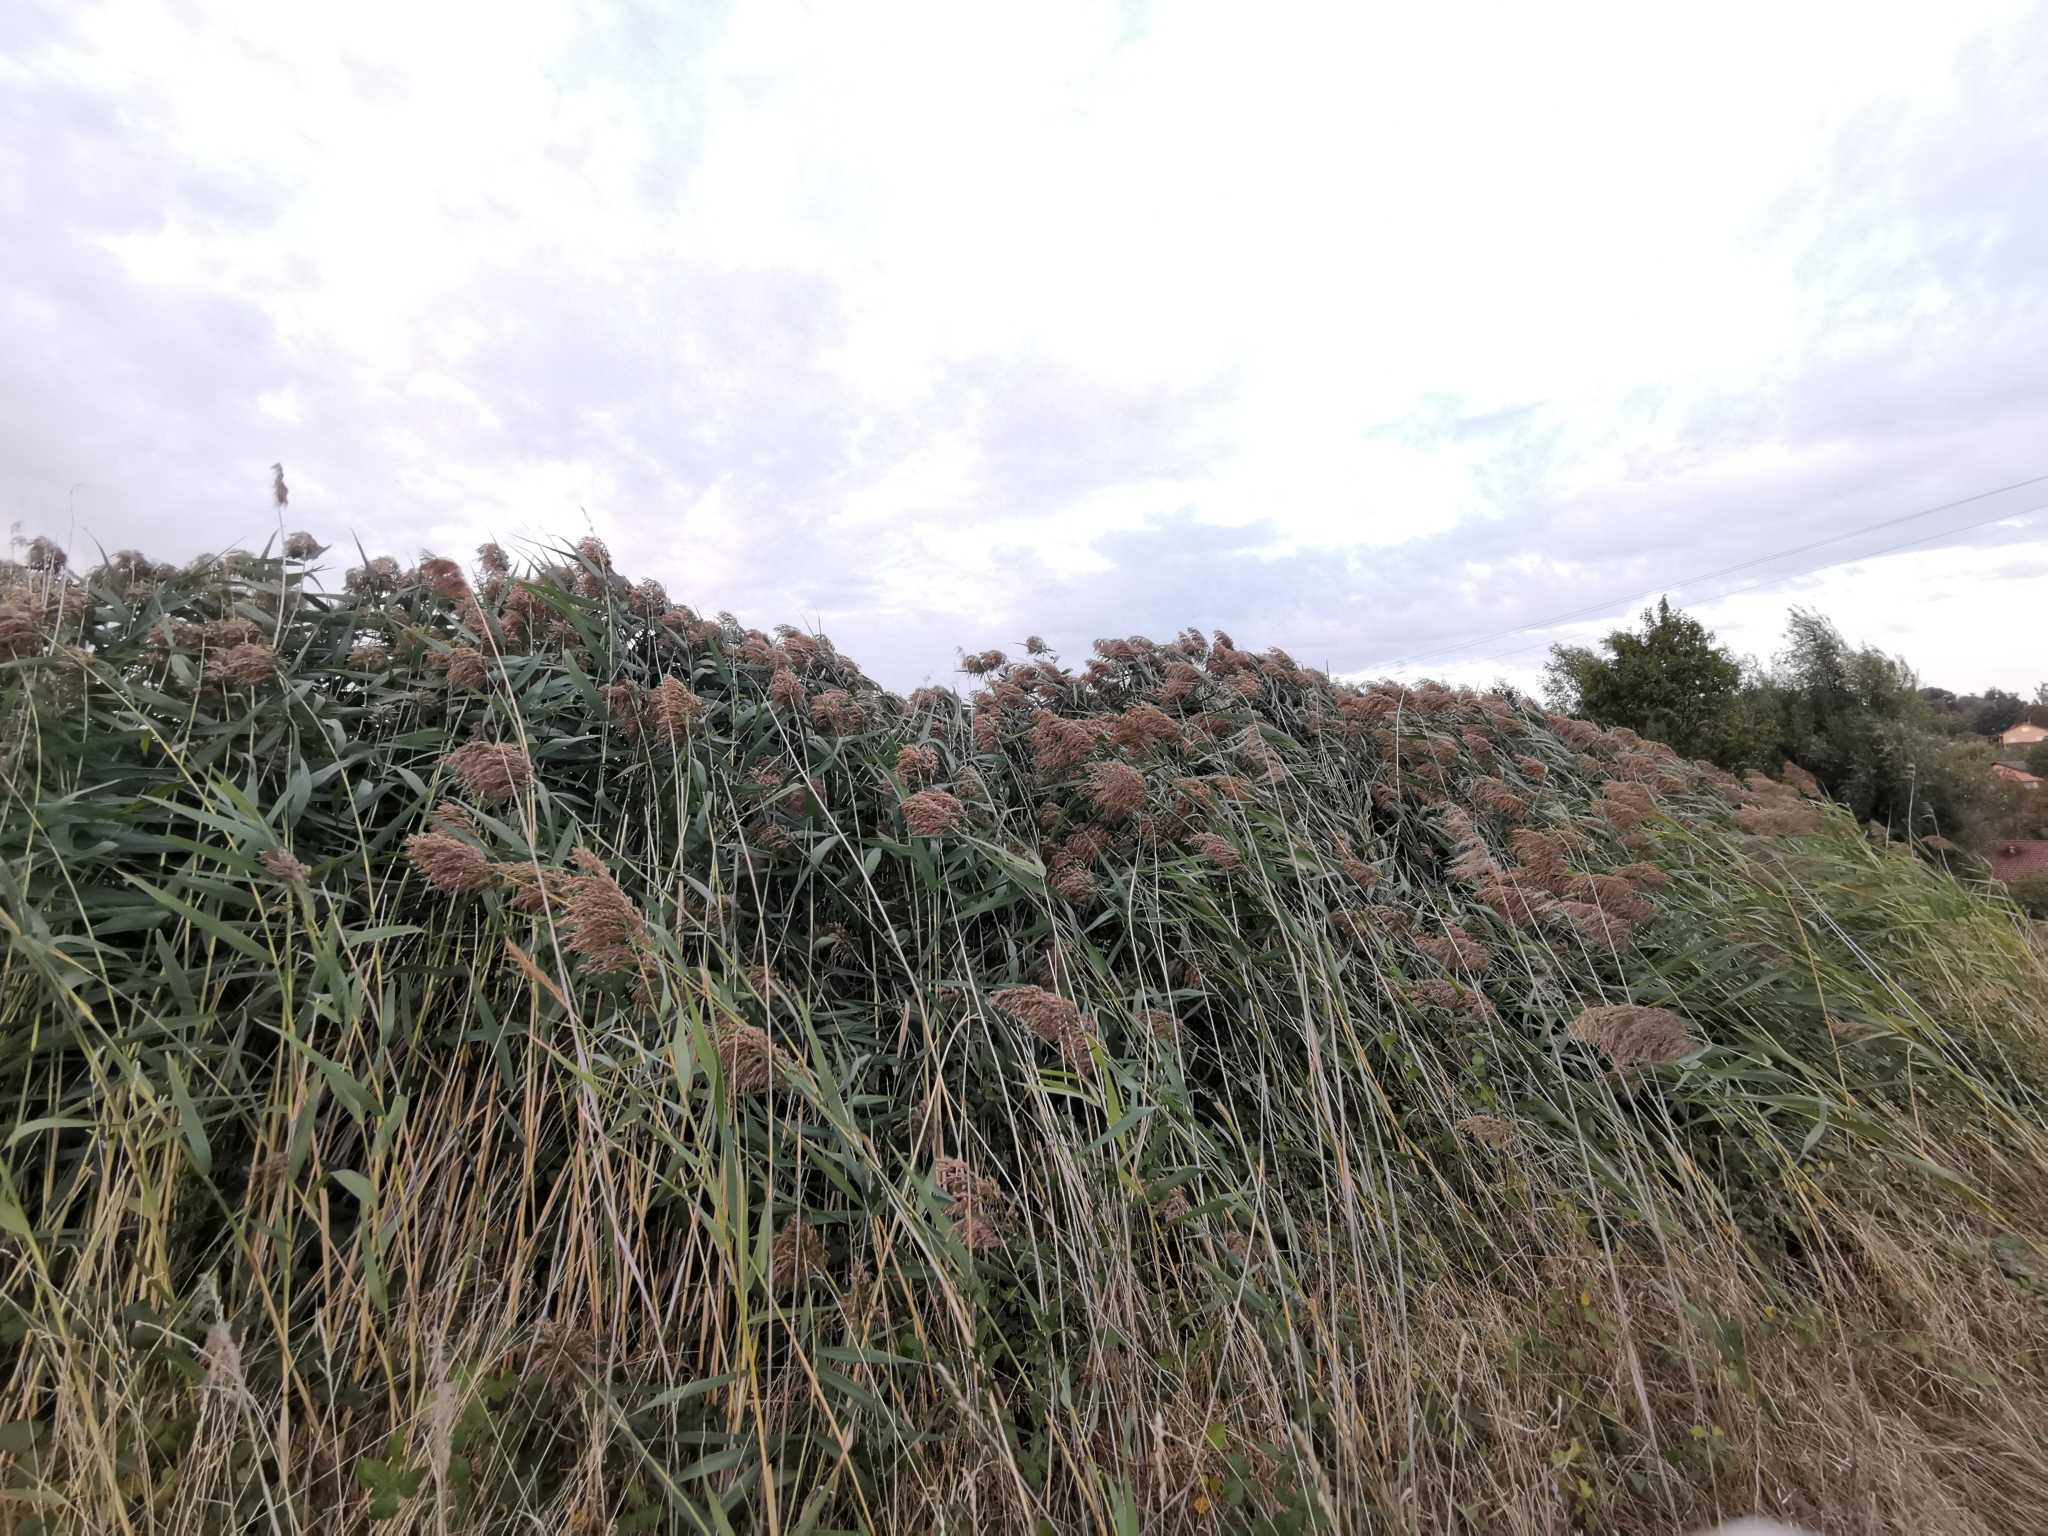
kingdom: Plantae
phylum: Tracheophyta
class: Liliopsida
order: Poales
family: Poaceae
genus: Phragmites
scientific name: Phragmites australis
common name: Common reed
